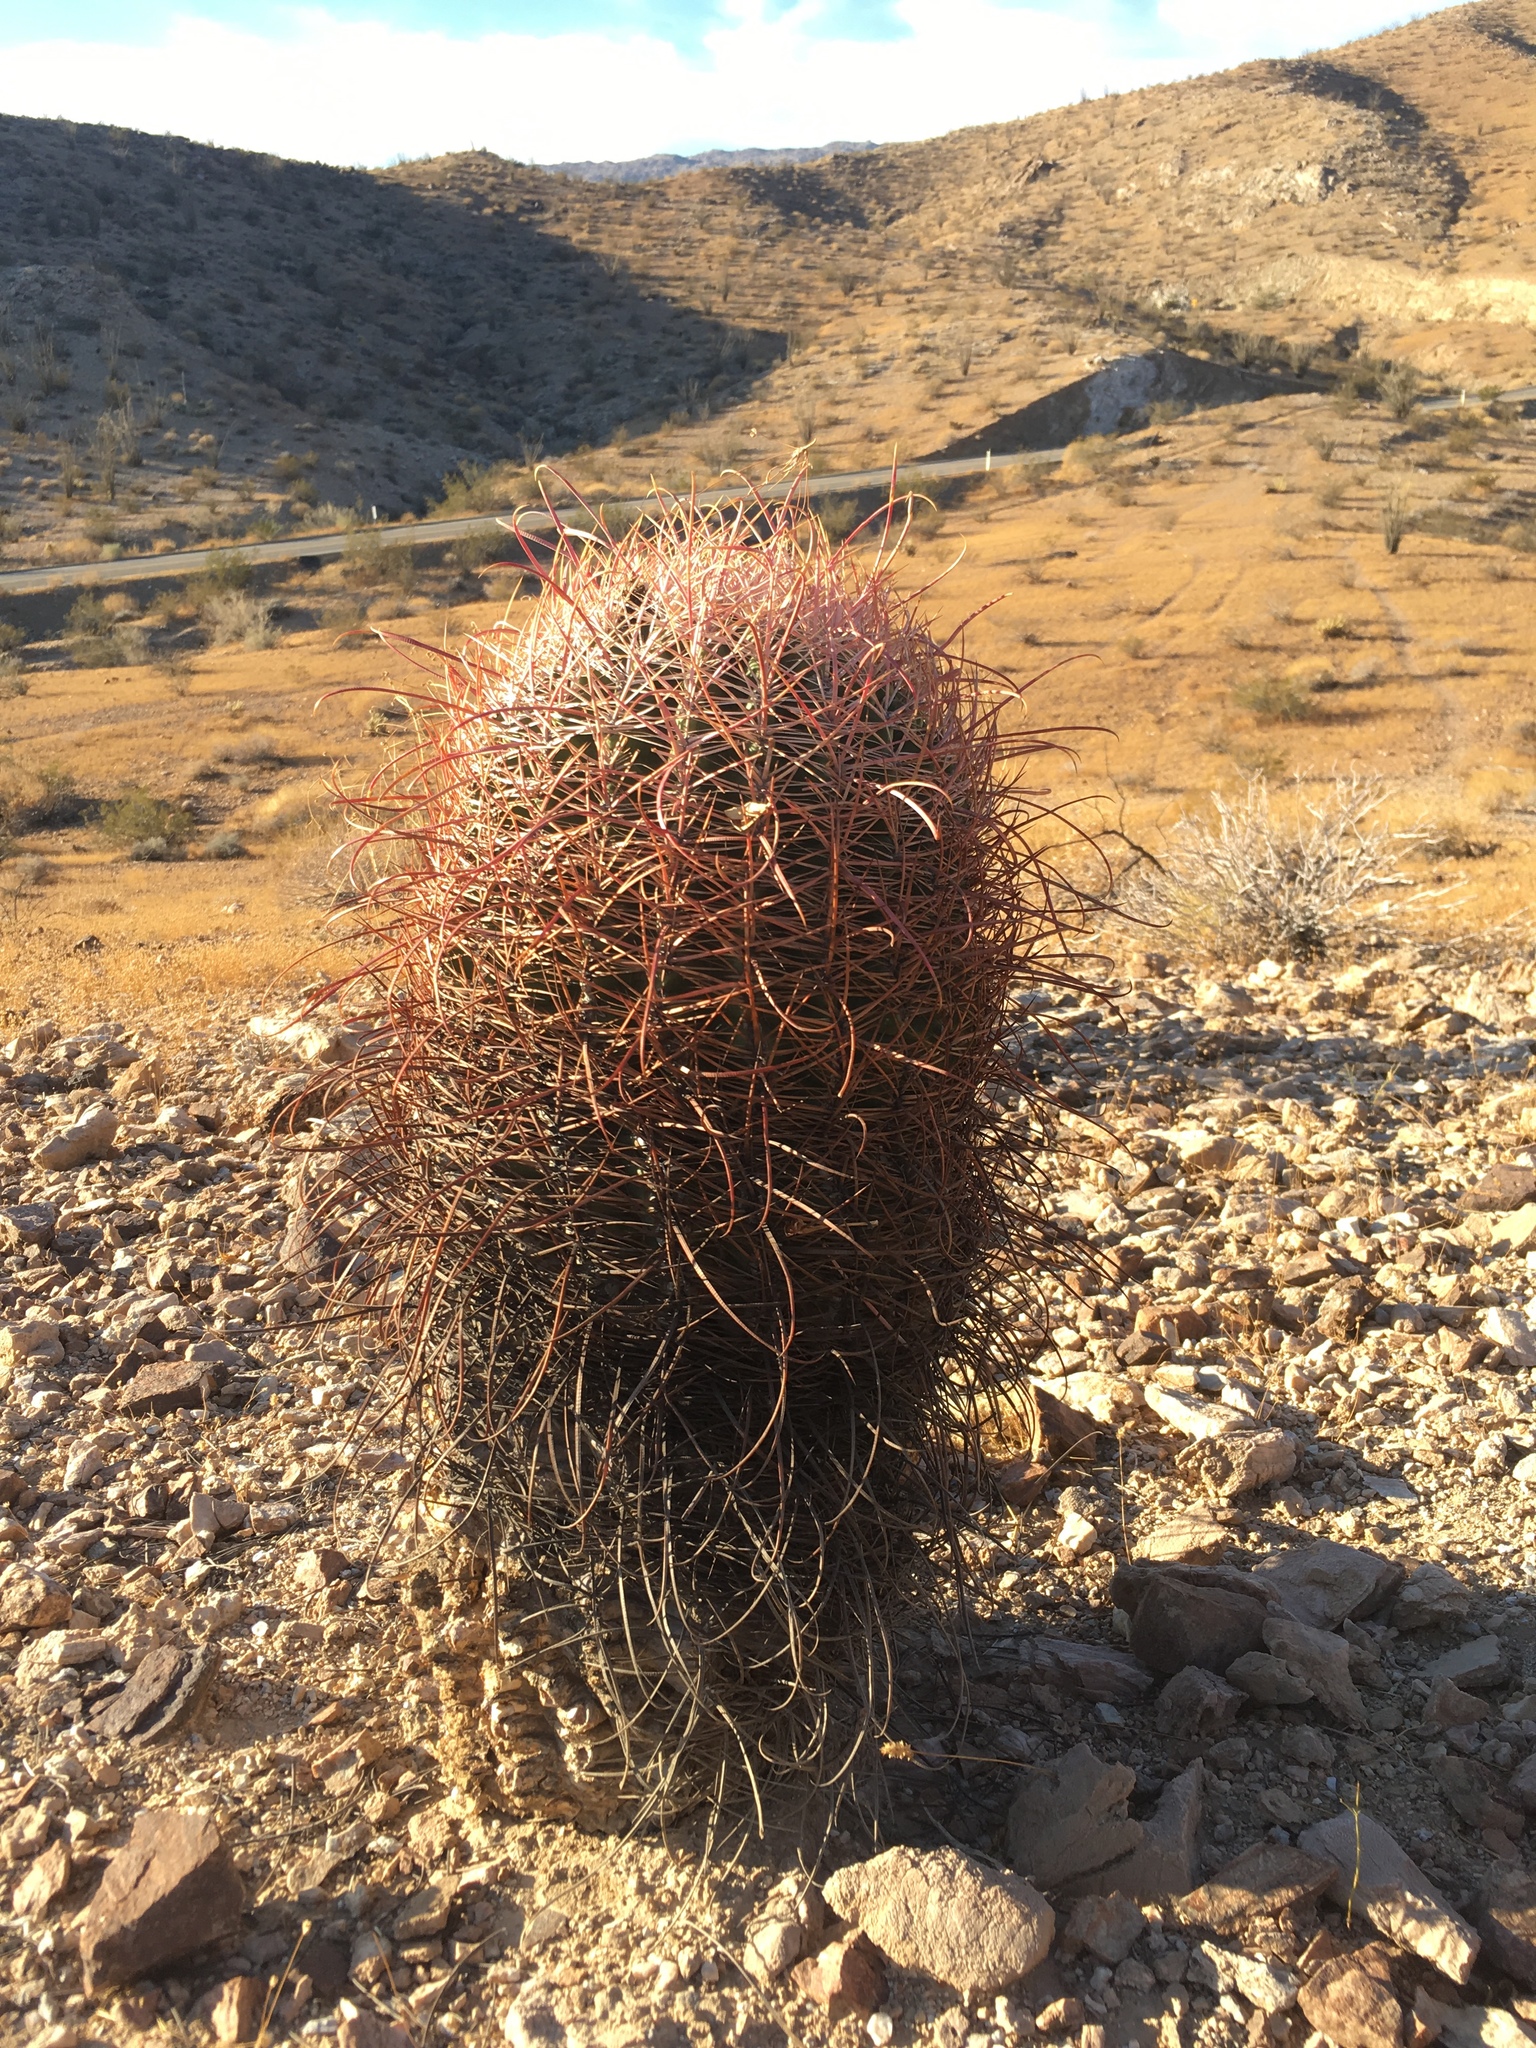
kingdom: Plantae
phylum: Tracheophyta
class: Magnoliopsida
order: Caryophyllales
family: Cactaceae
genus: Ferocactus
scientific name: Ferocactus cylindraceus
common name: California barrel cactus
